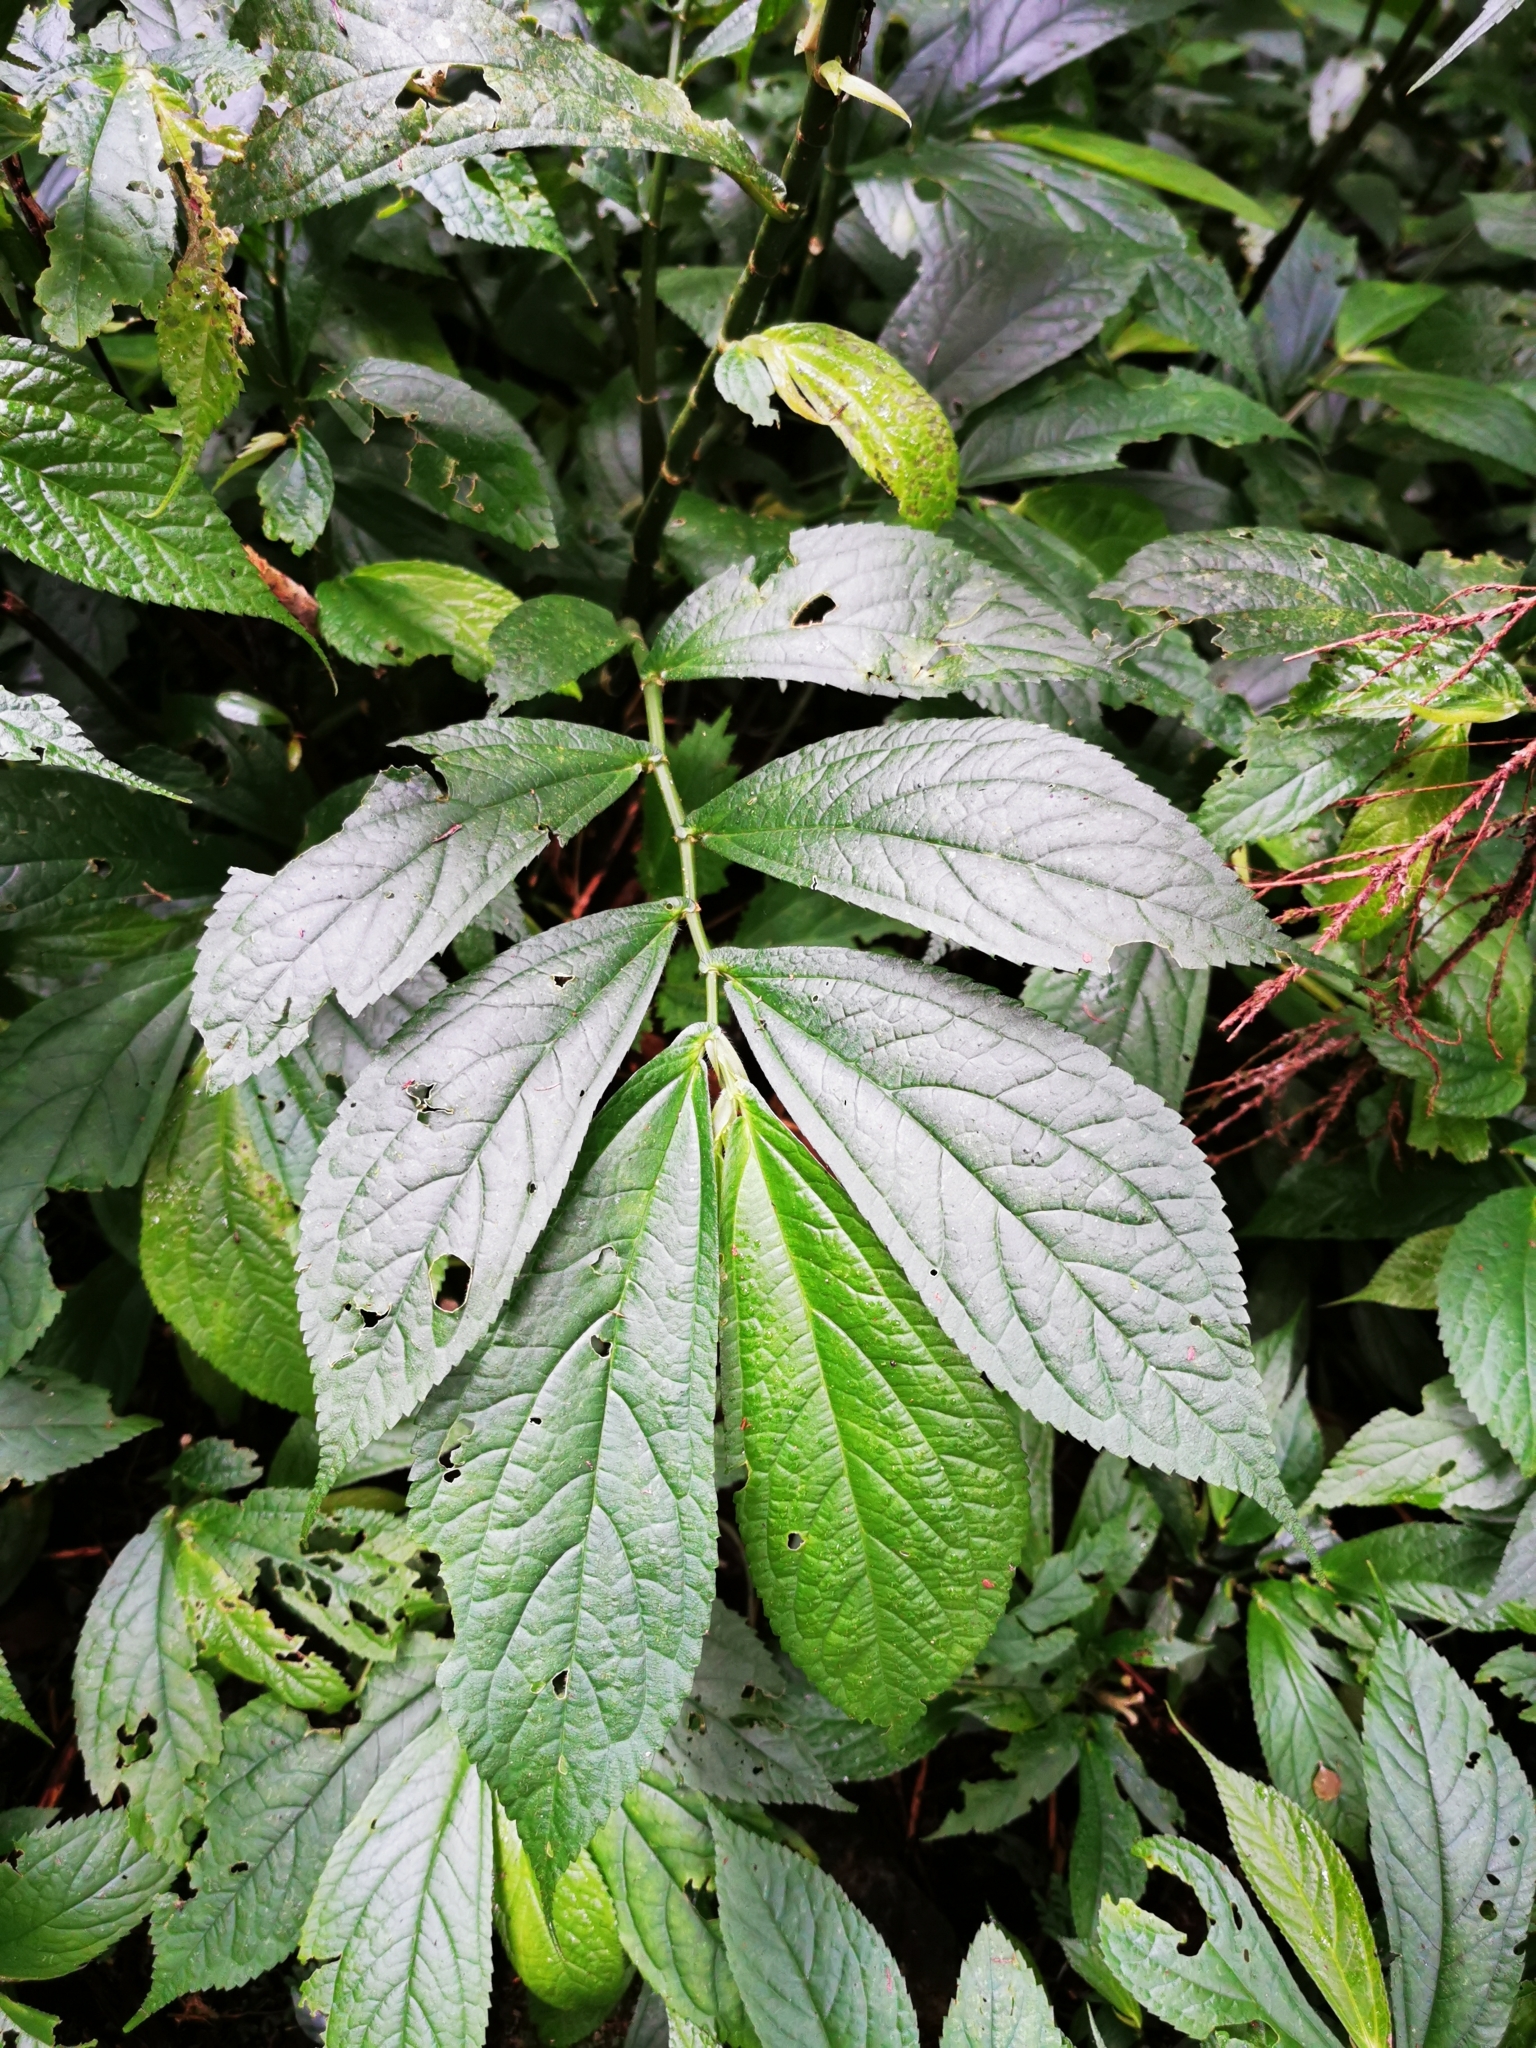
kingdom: Plantae
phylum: Tracheophyta
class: Magnoliopsida
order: Rosales
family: Urticaceae
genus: Elatostema
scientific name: Elatostema platyphyllum
